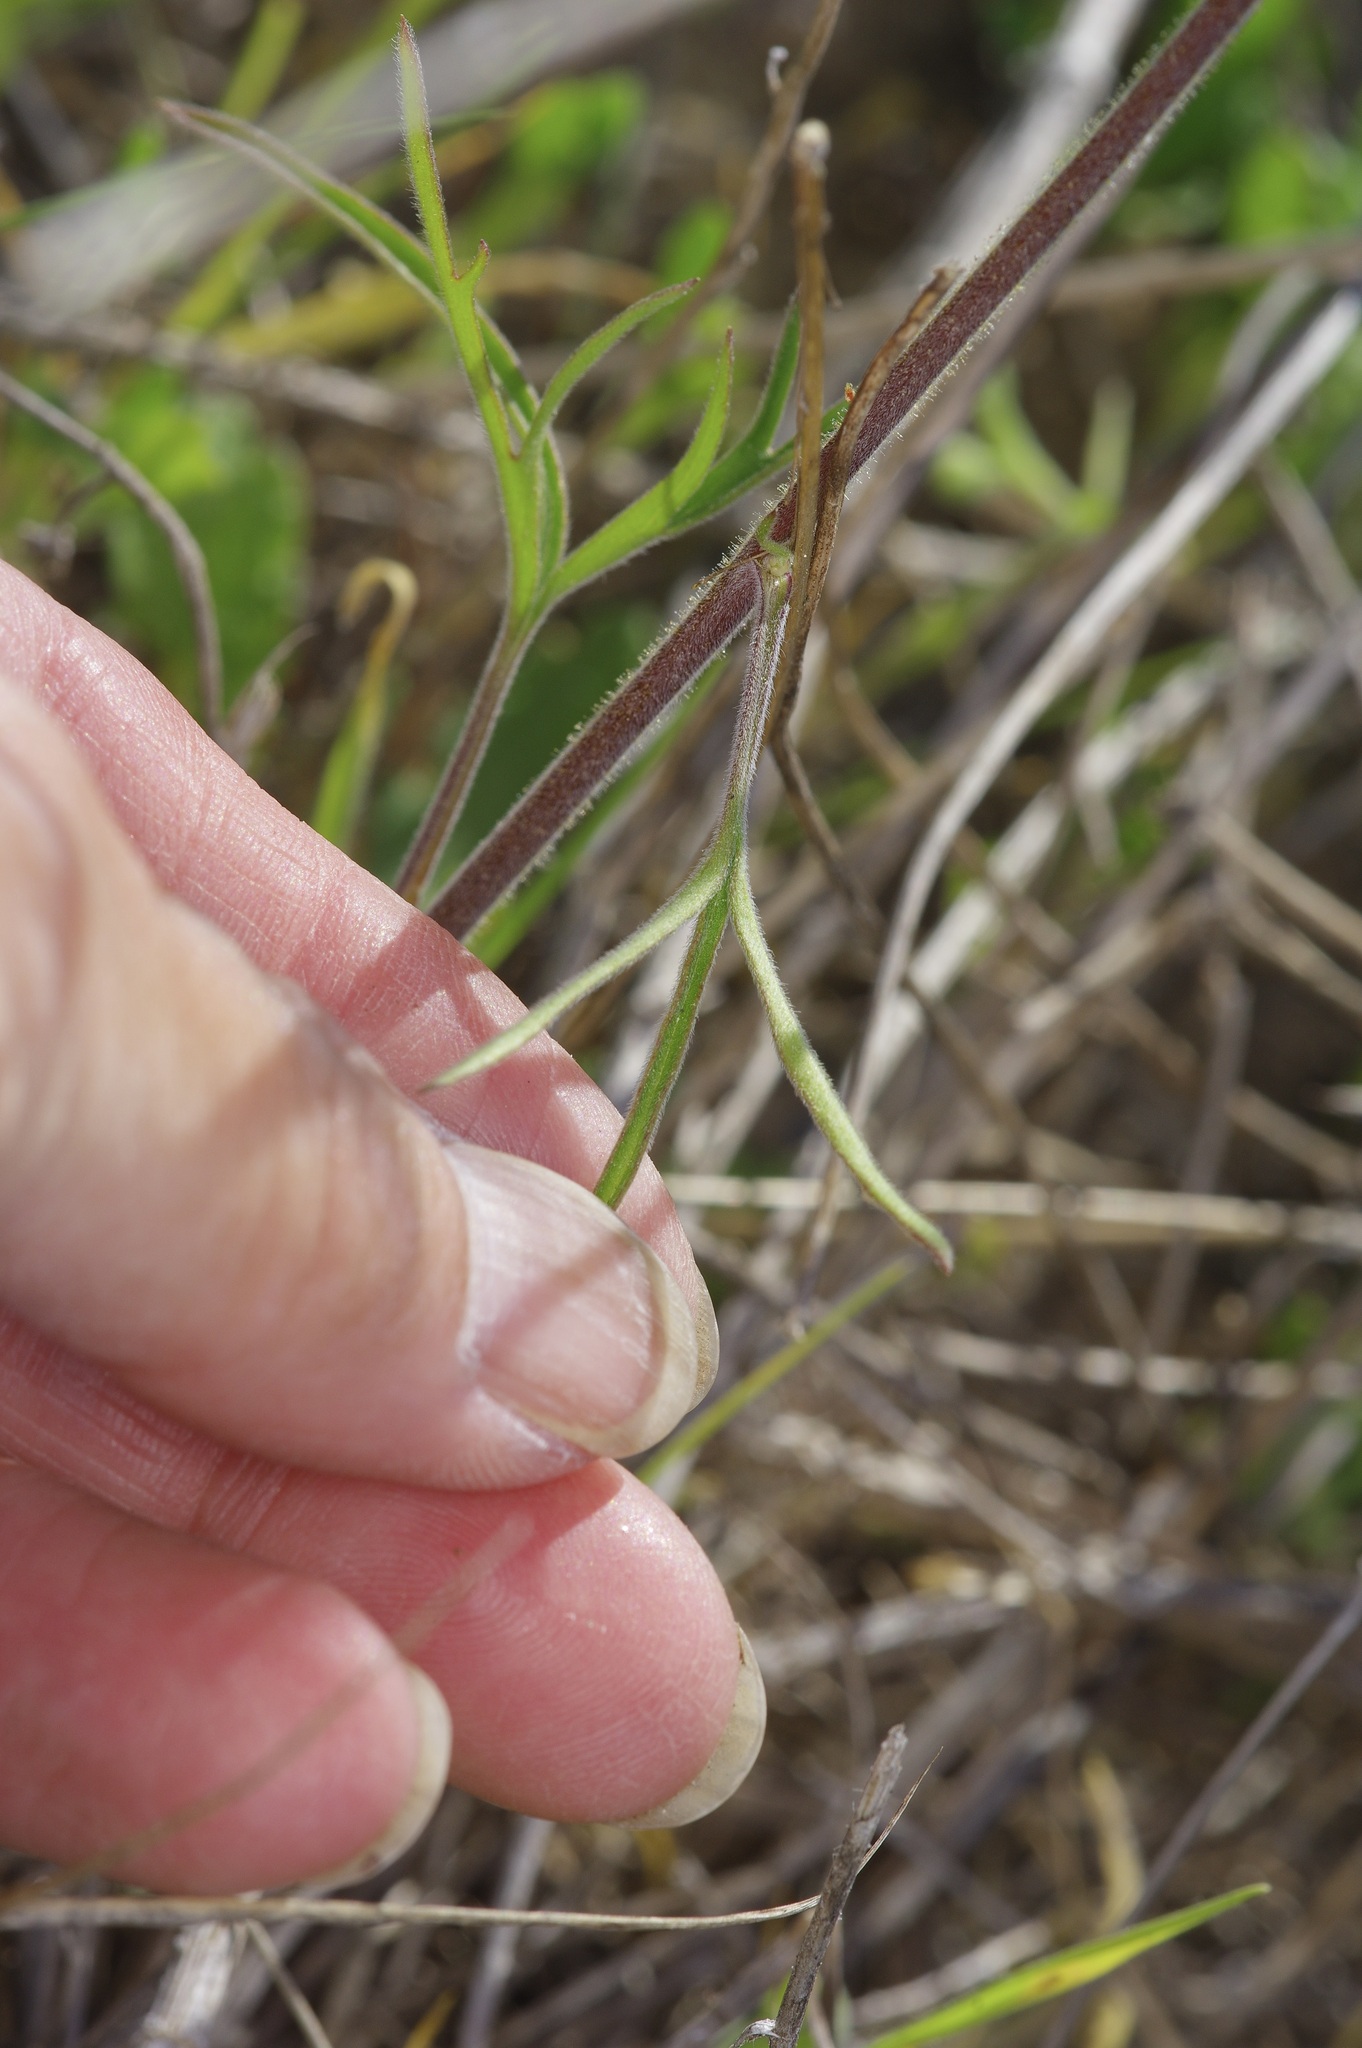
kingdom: Plantae
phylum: Tracheophyta
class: Magnoliopsida
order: Ranunculales
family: Ranunculaceae
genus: Delphinium
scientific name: Delphinium carolinianum
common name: Carolina larkspur
